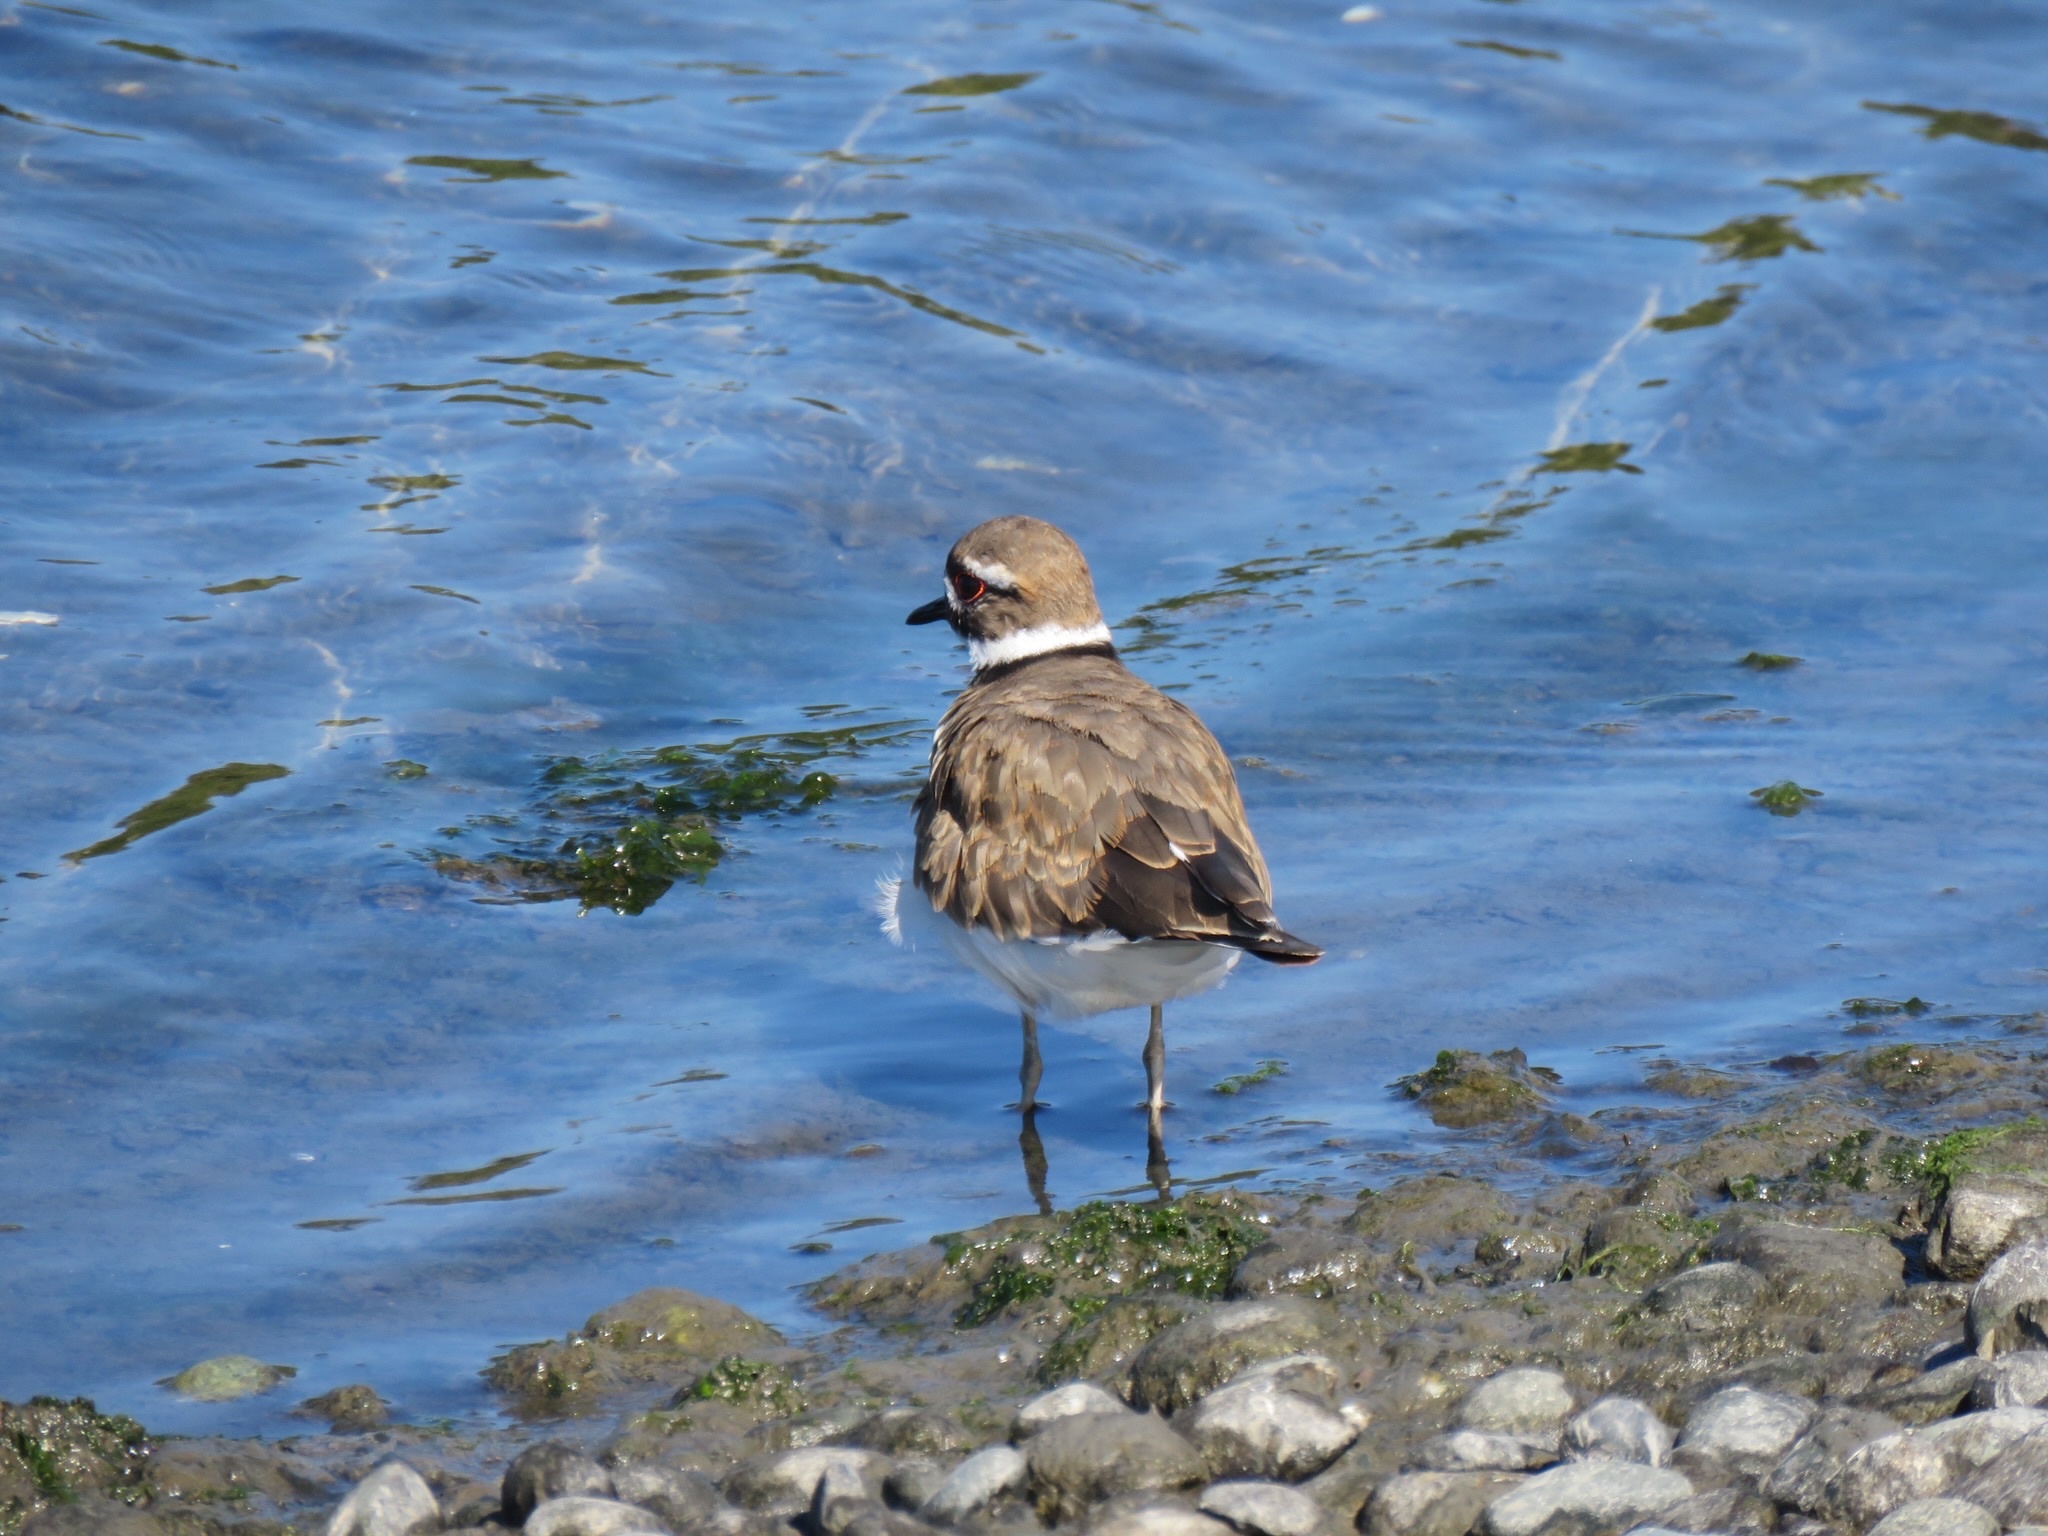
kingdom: Animalia
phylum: Chordata
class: Aves
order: Charadriiformes
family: Charadriidae
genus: Charadrius
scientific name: Charadrius vociferus
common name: Killdeer
